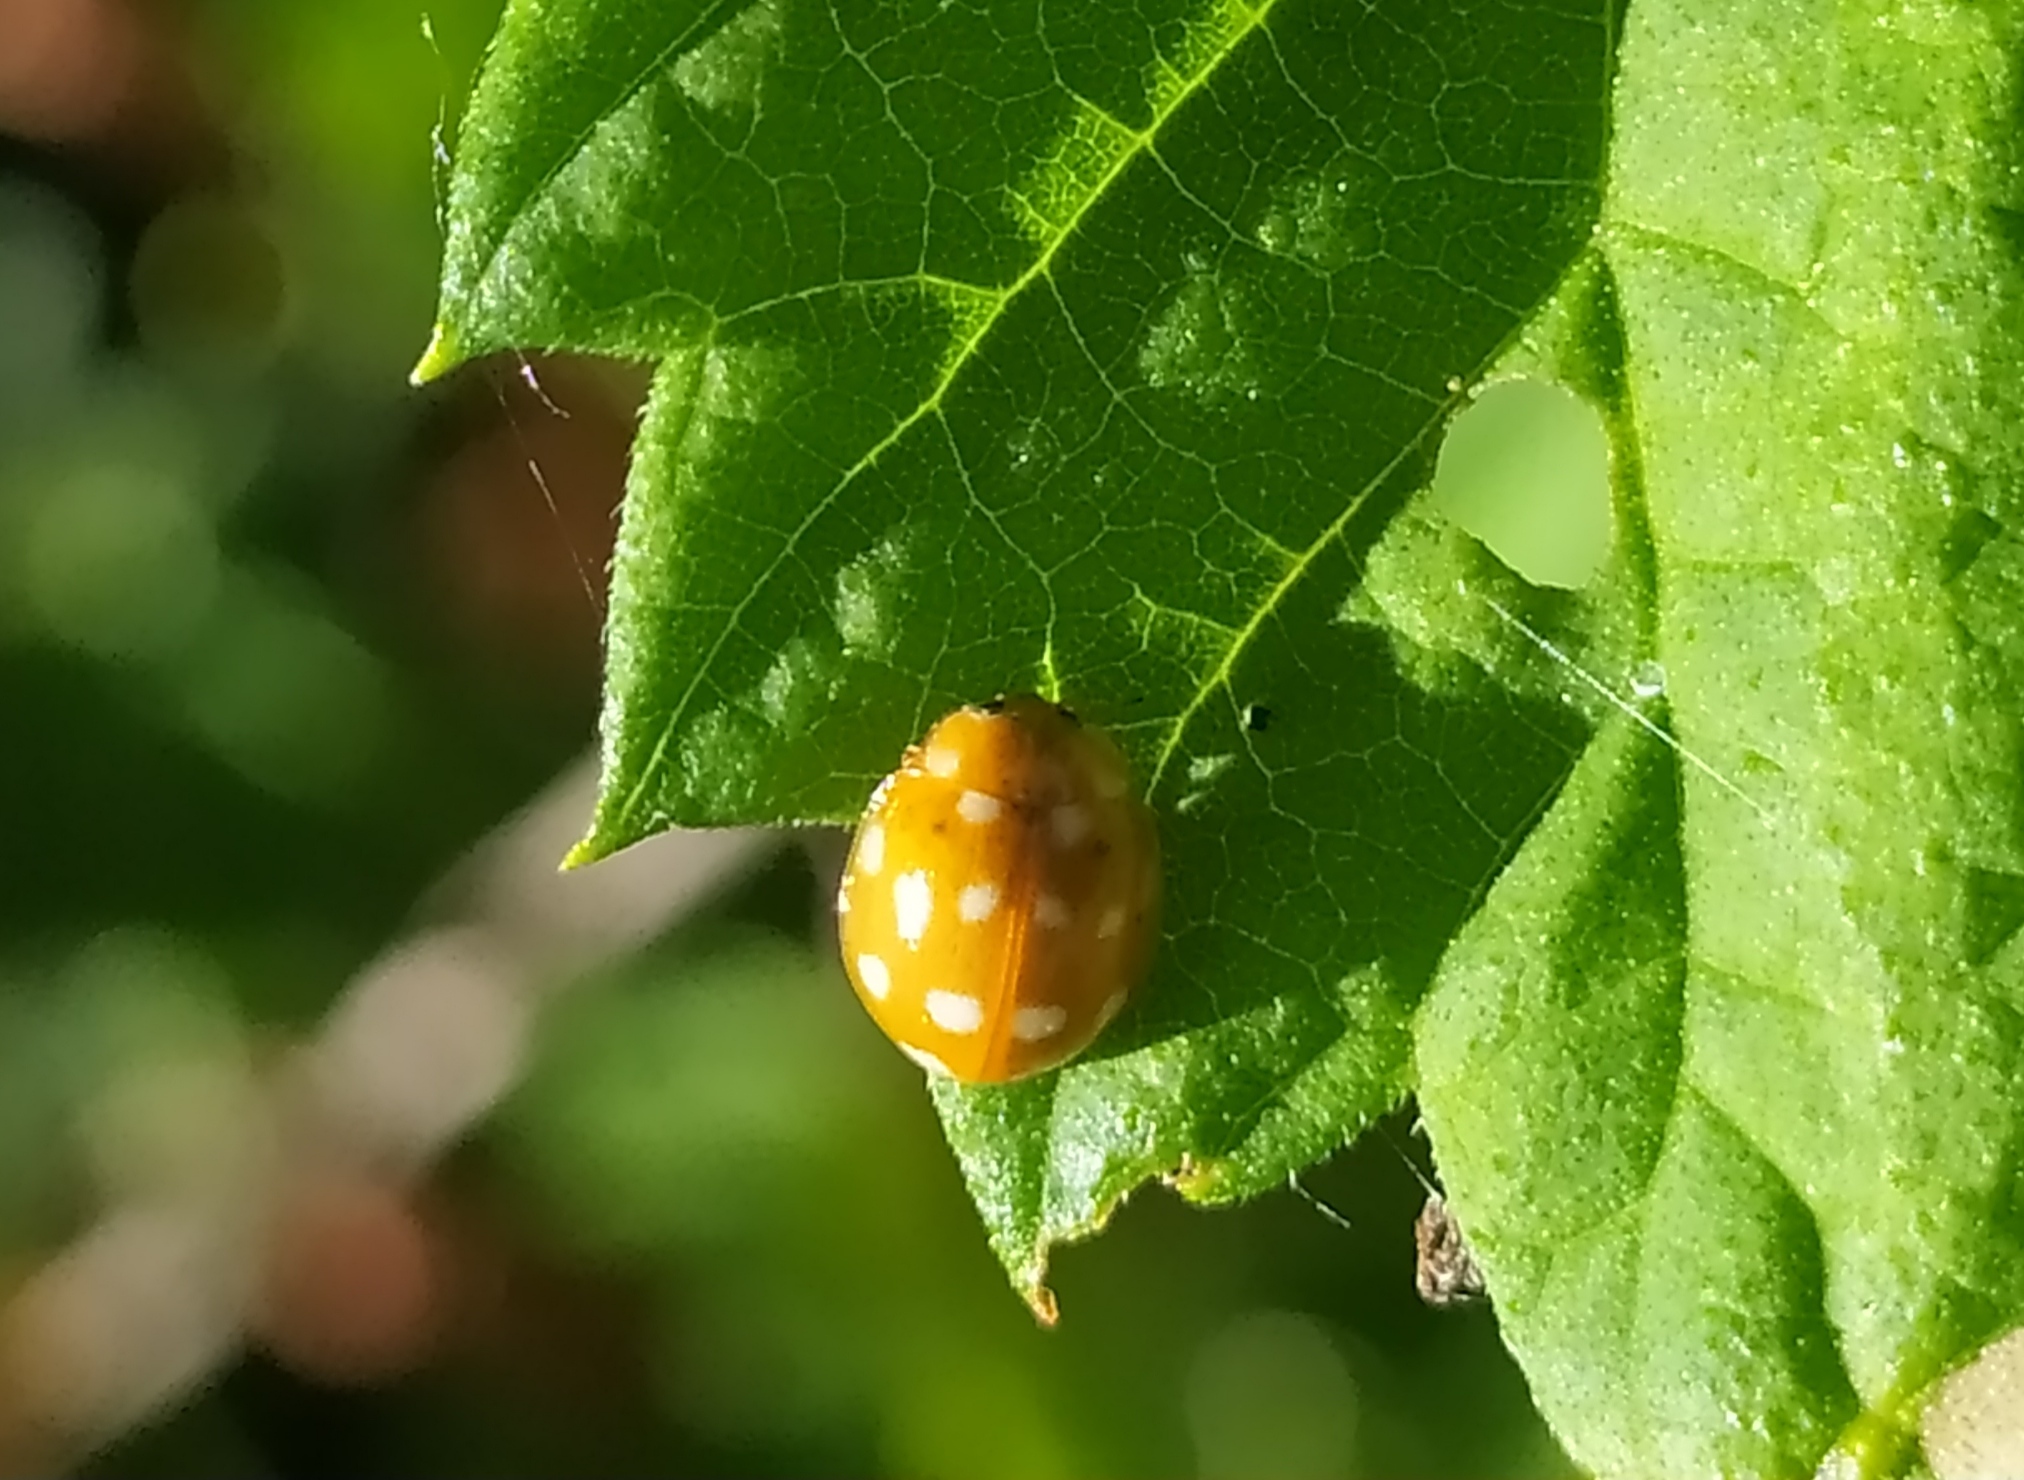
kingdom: Animalia
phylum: Arthropoda
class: Insecta
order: Coleoptera
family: Coccinellidae
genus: Calvia
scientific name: Calvia quatuordecimguttata
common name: Cream-spot ladybird
